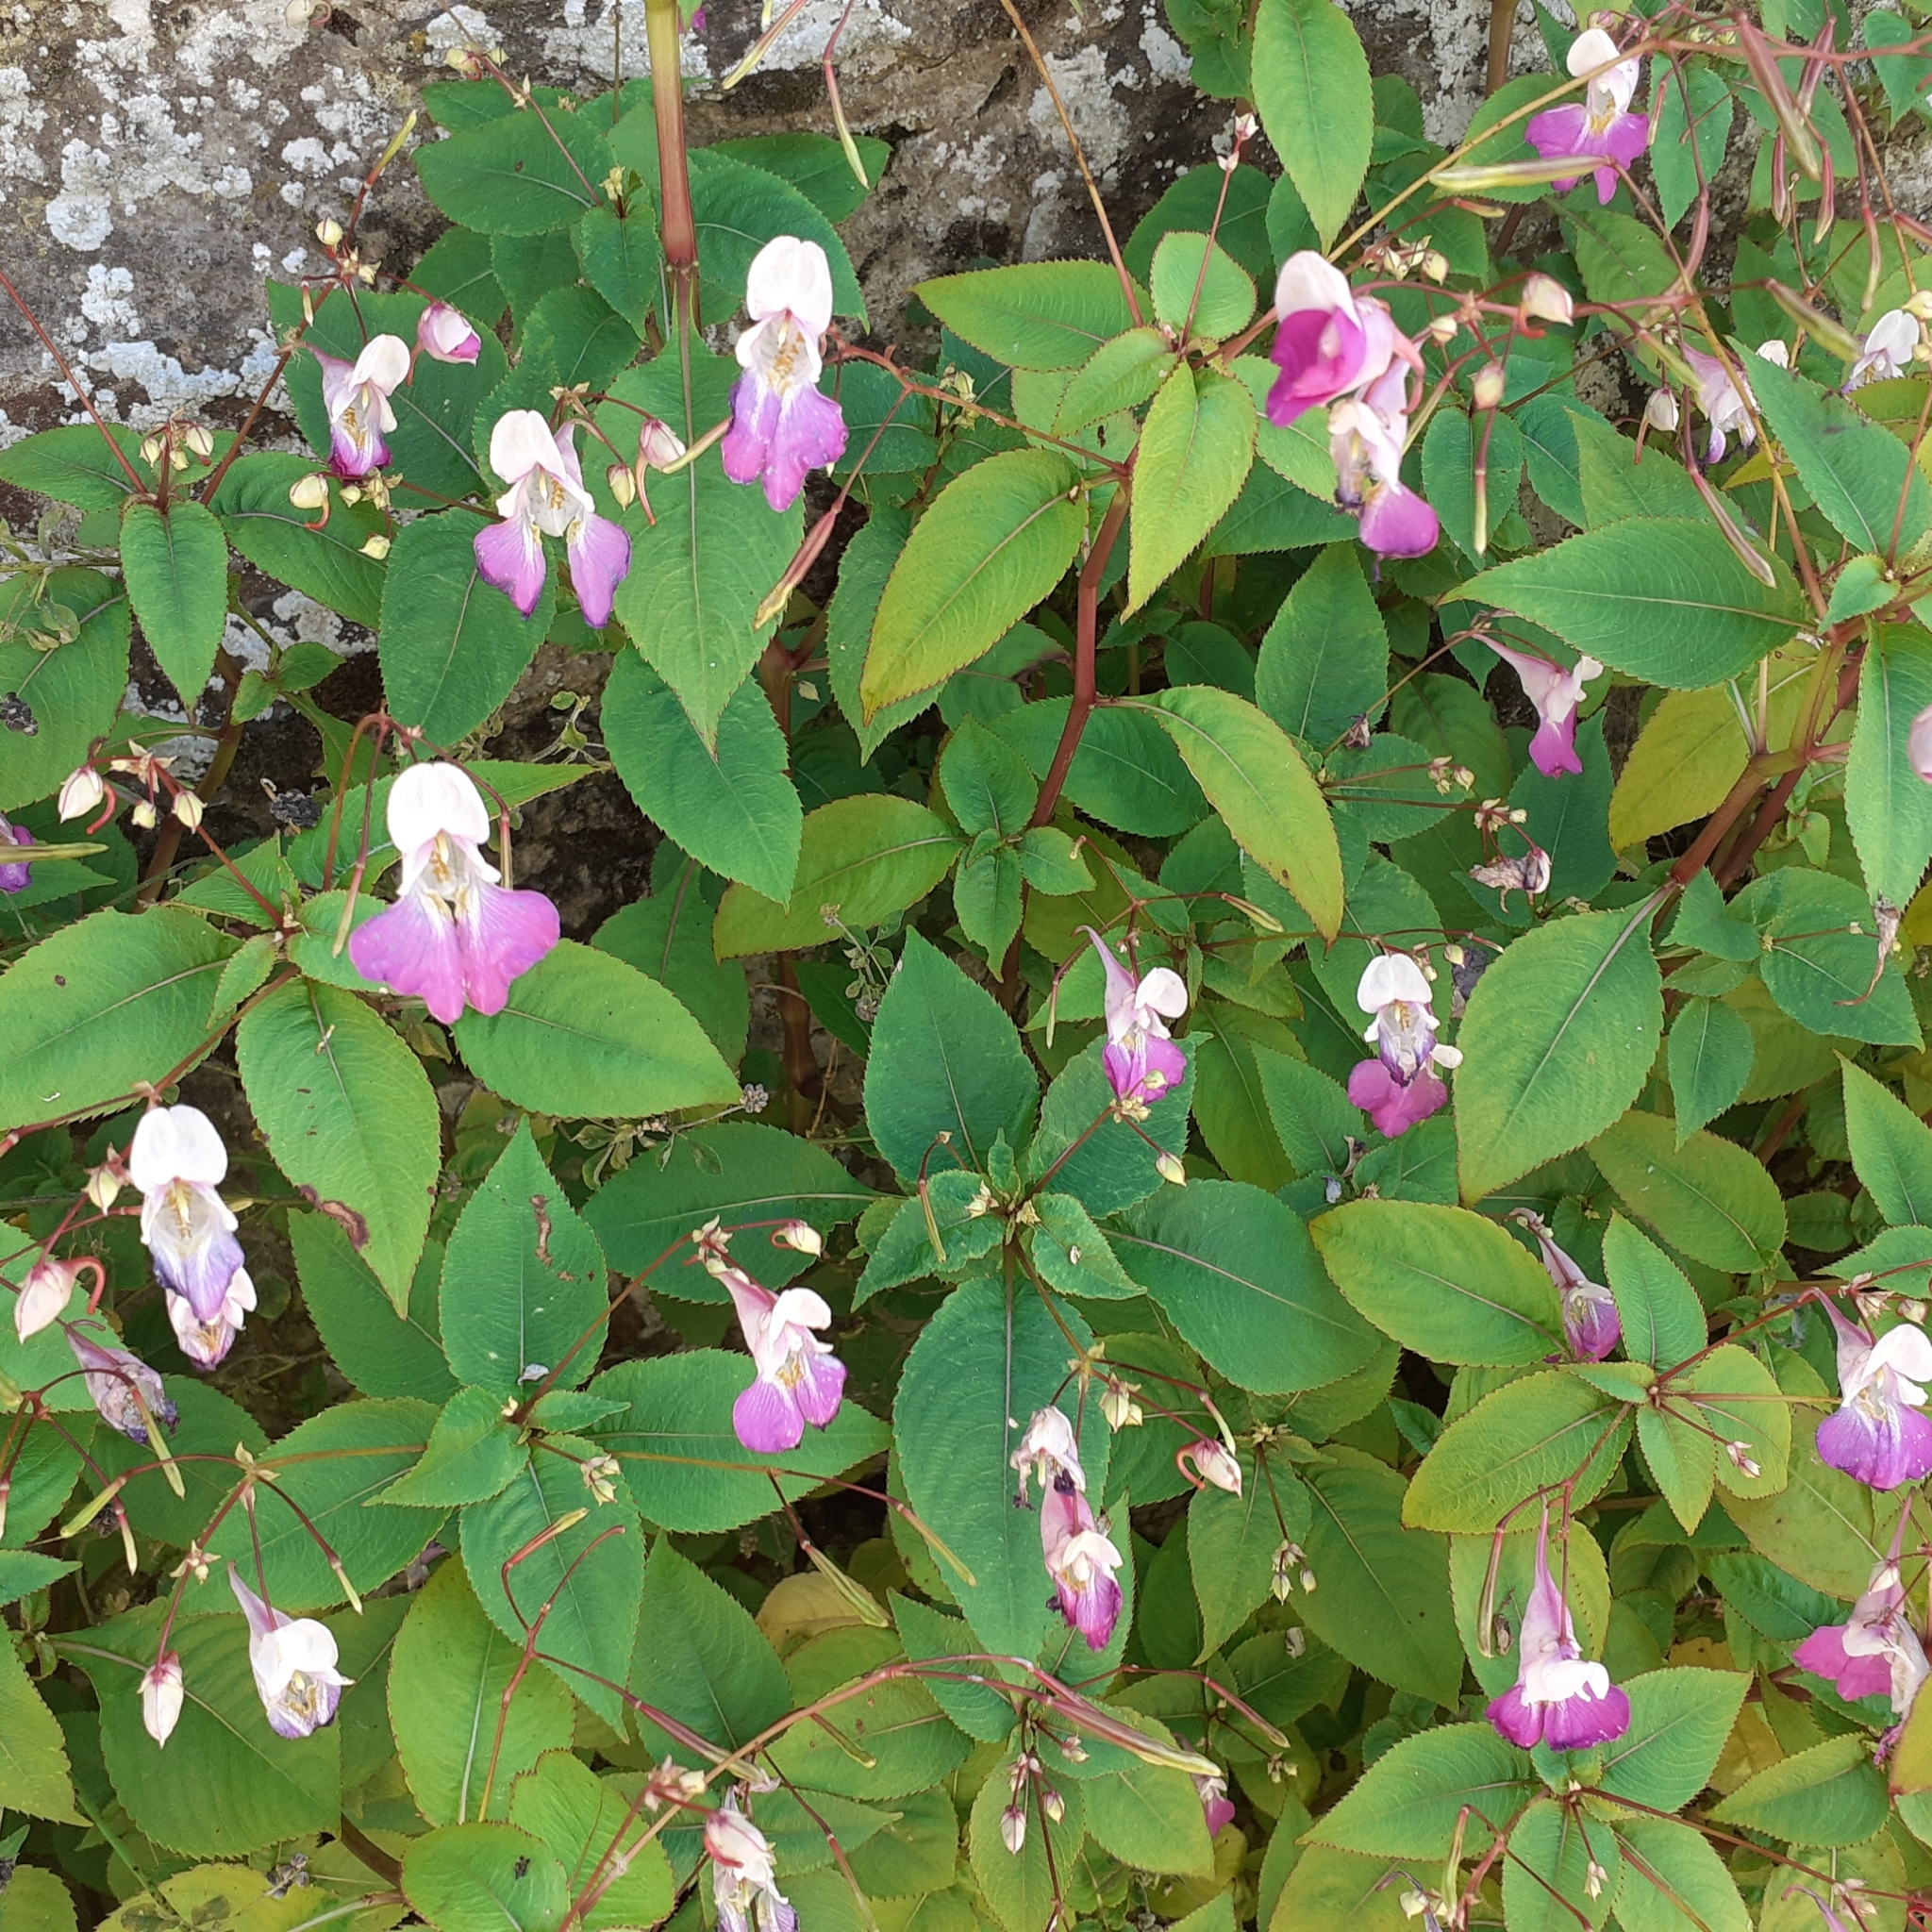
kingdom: Plantae
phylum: Tracheophyta
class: Magnoliopsida
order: Ericales
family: Balsaminaceae
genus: Impatiens
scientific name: Impatiens balfourii
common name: Balfour's touch-me-not
